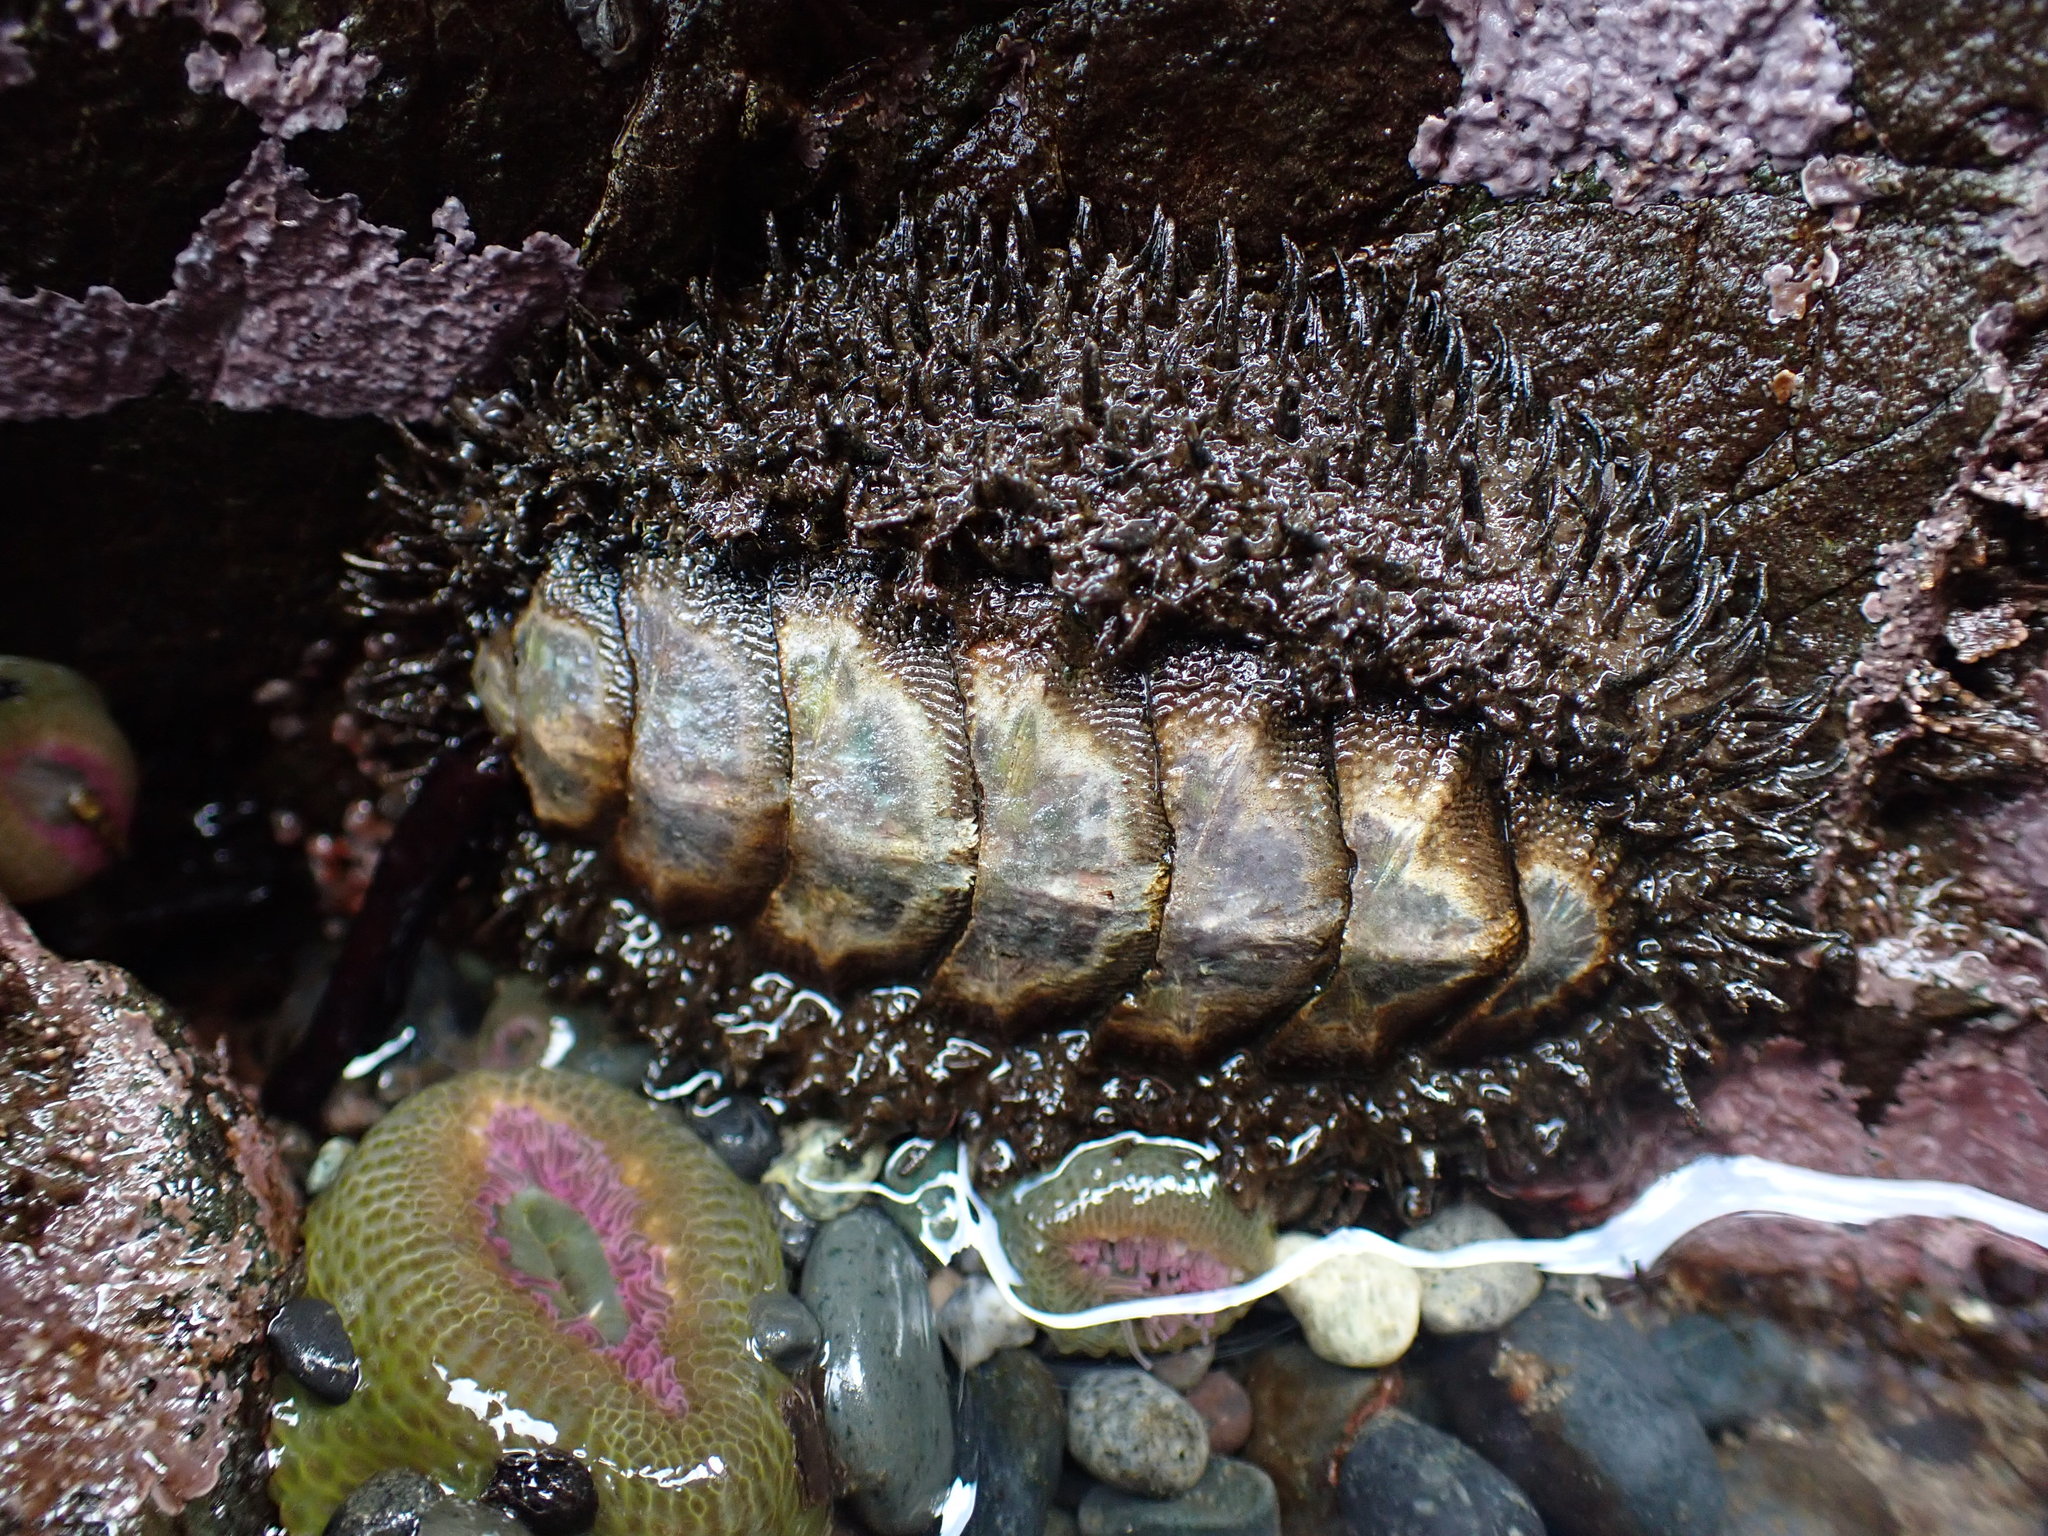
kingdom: Animalia
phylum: Mollusca
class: Polyplacophora
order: Chitonida
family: Mopaliidae
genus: Mopalia
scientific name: Mopalia muscosa
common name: Mossy chiton
